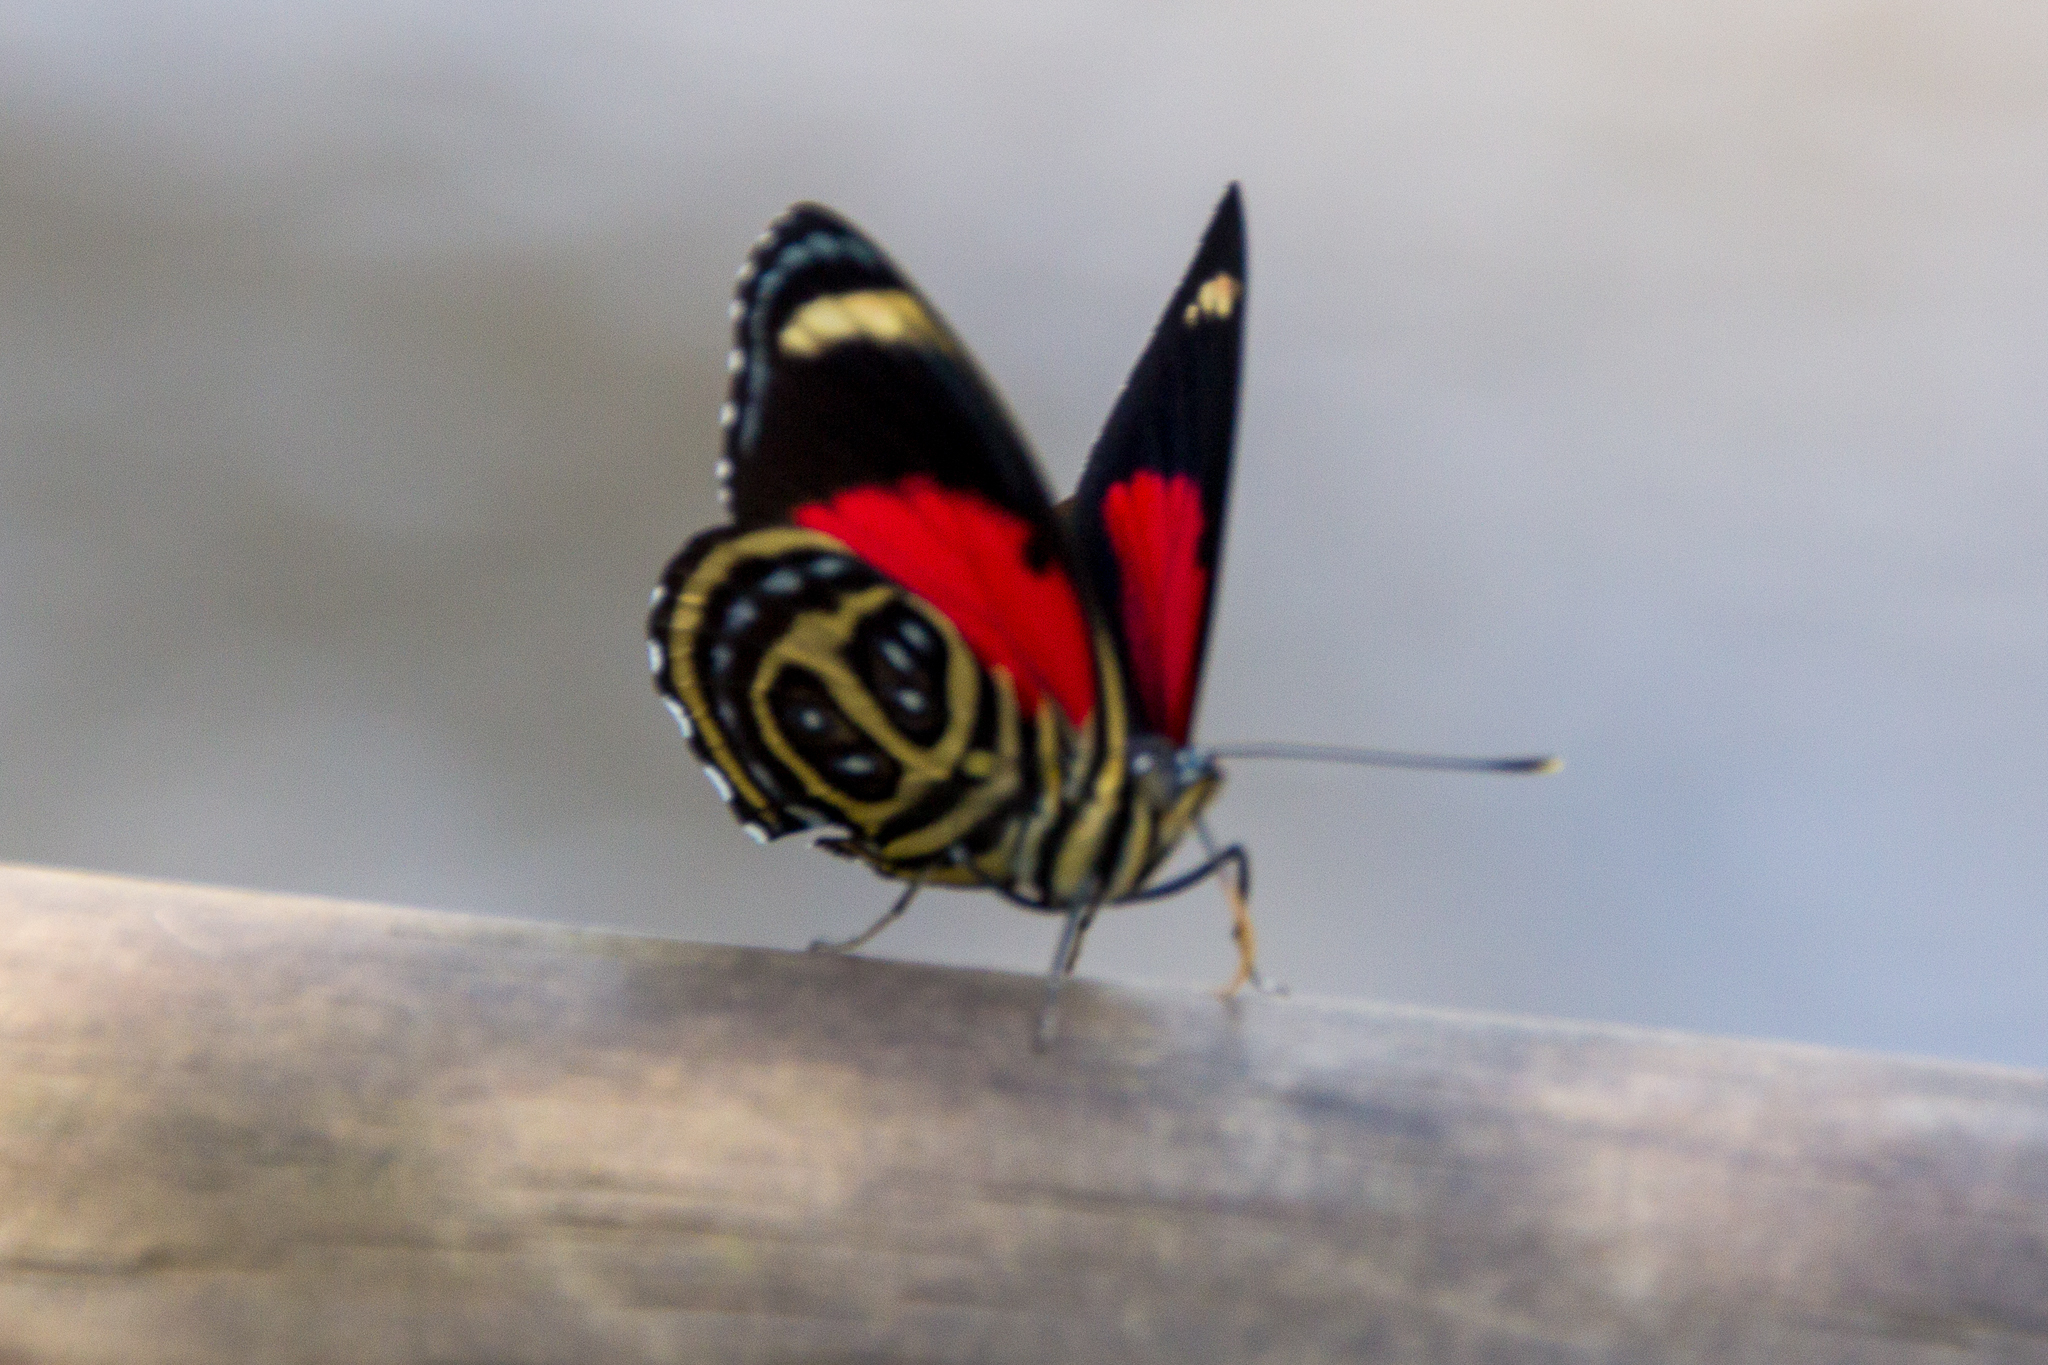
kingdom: Animalia
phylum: Arthropoda
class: Insecta
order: Lepidoptera
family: Nymphalidae
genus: Catagramma
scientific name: Catagramma pygas
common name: Godart's numberwing
